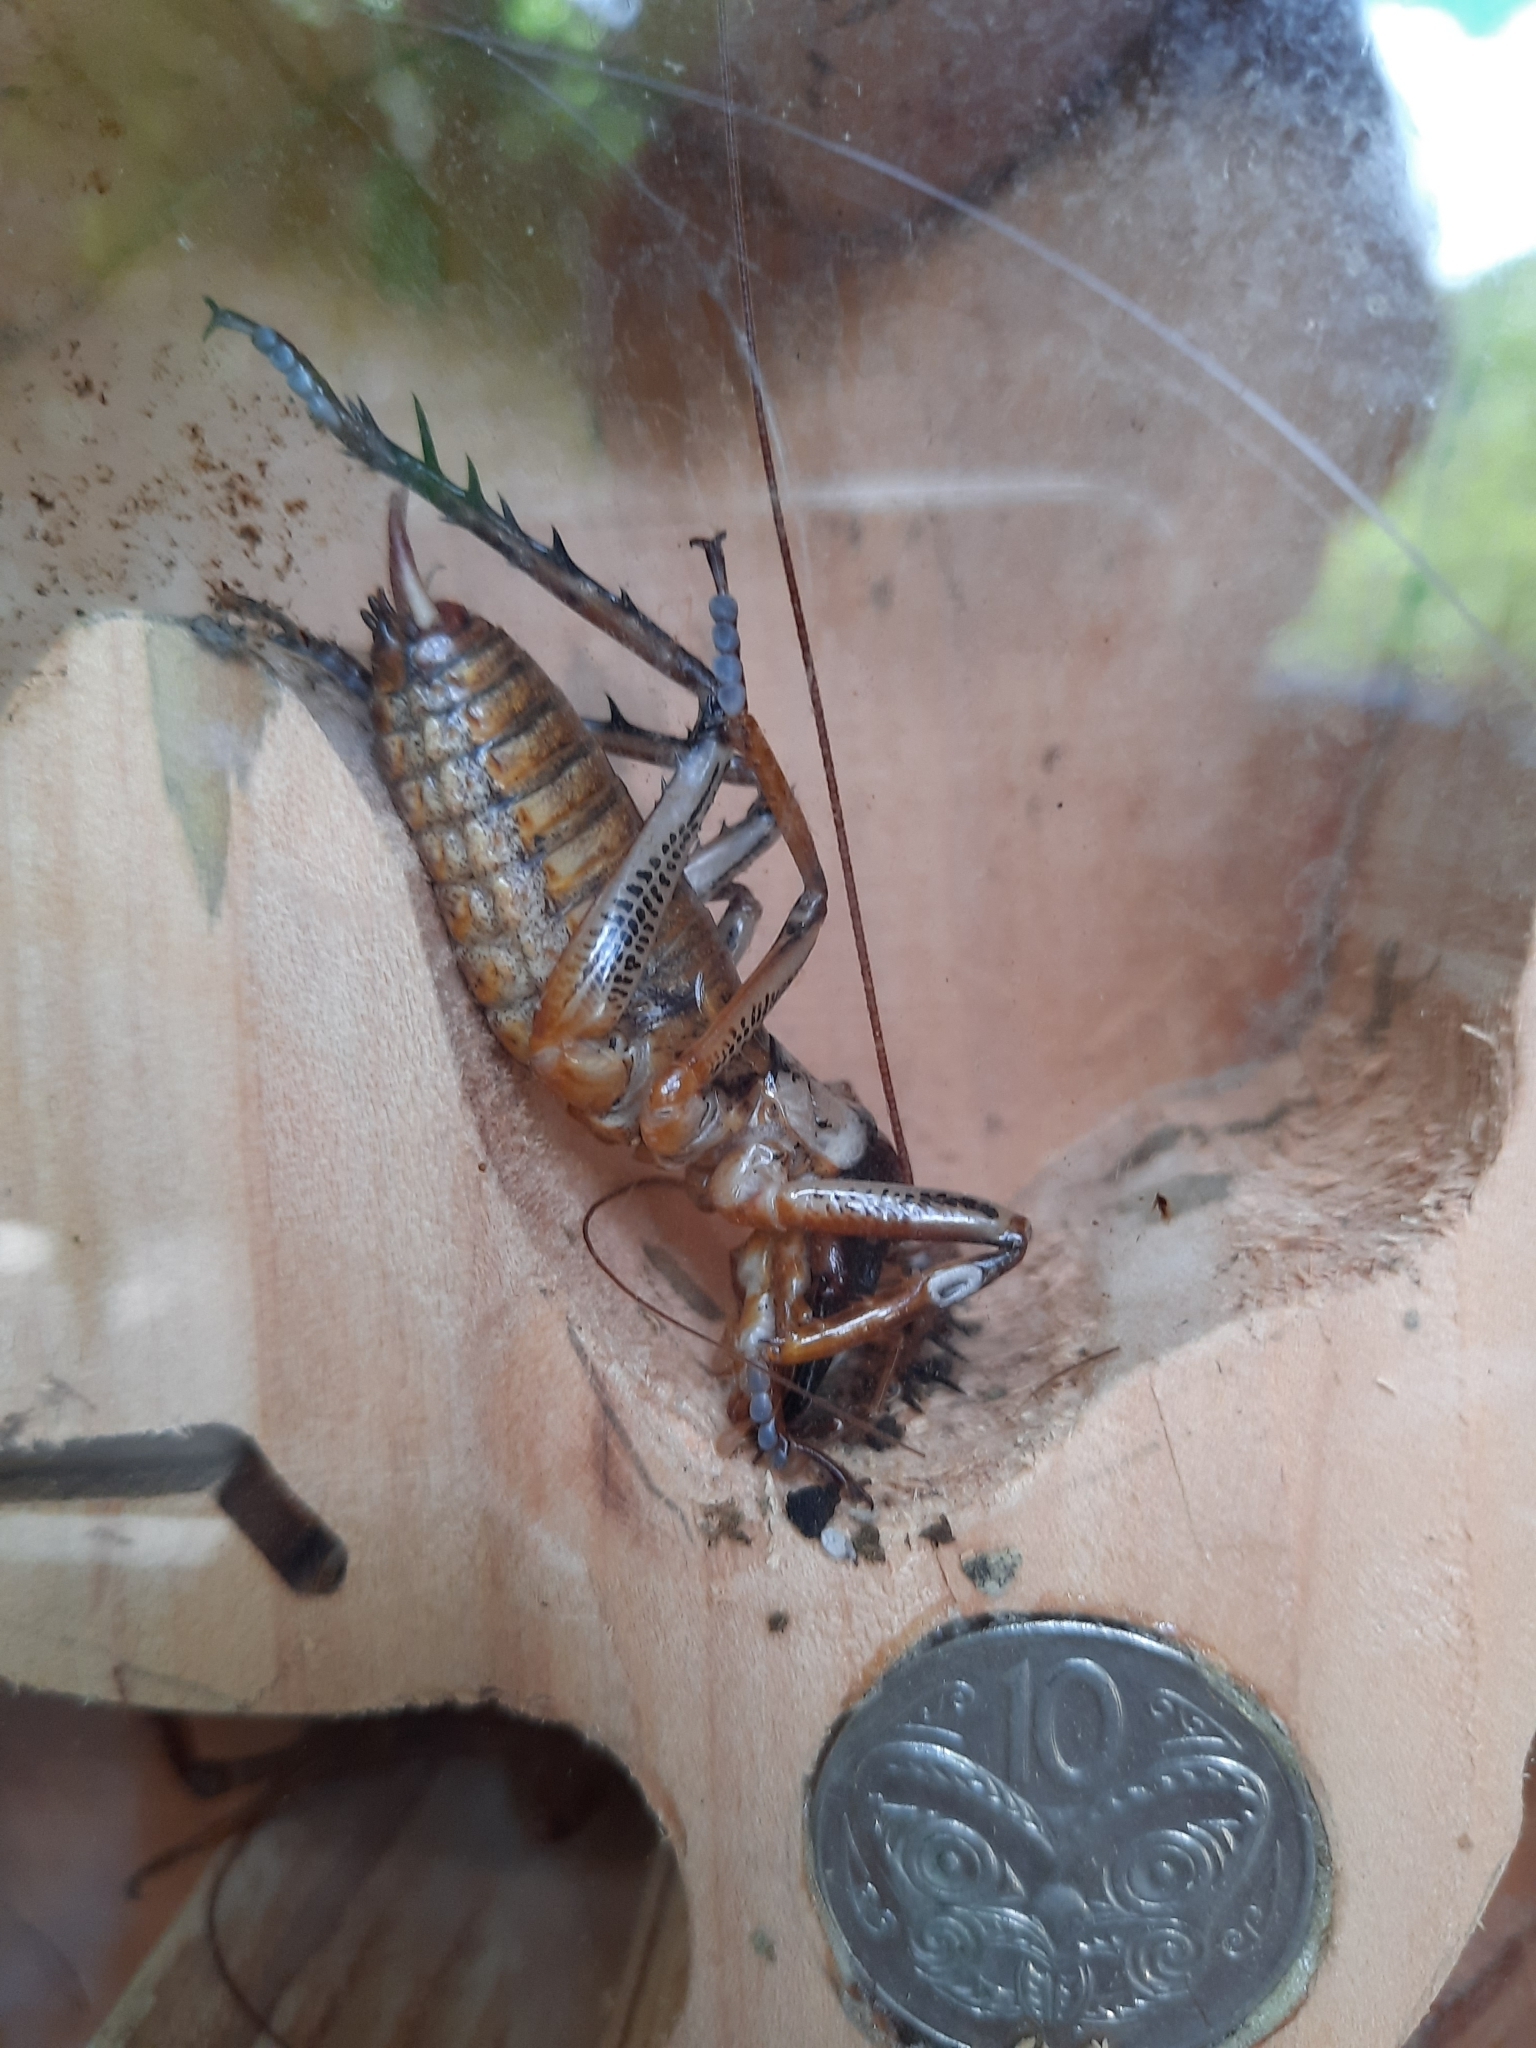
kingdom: Animalia
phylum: Arthropoda
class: Insecta
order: Orthoptera
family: Anostostomatidae
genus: Hemideina
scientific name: Hemideina thoracica
